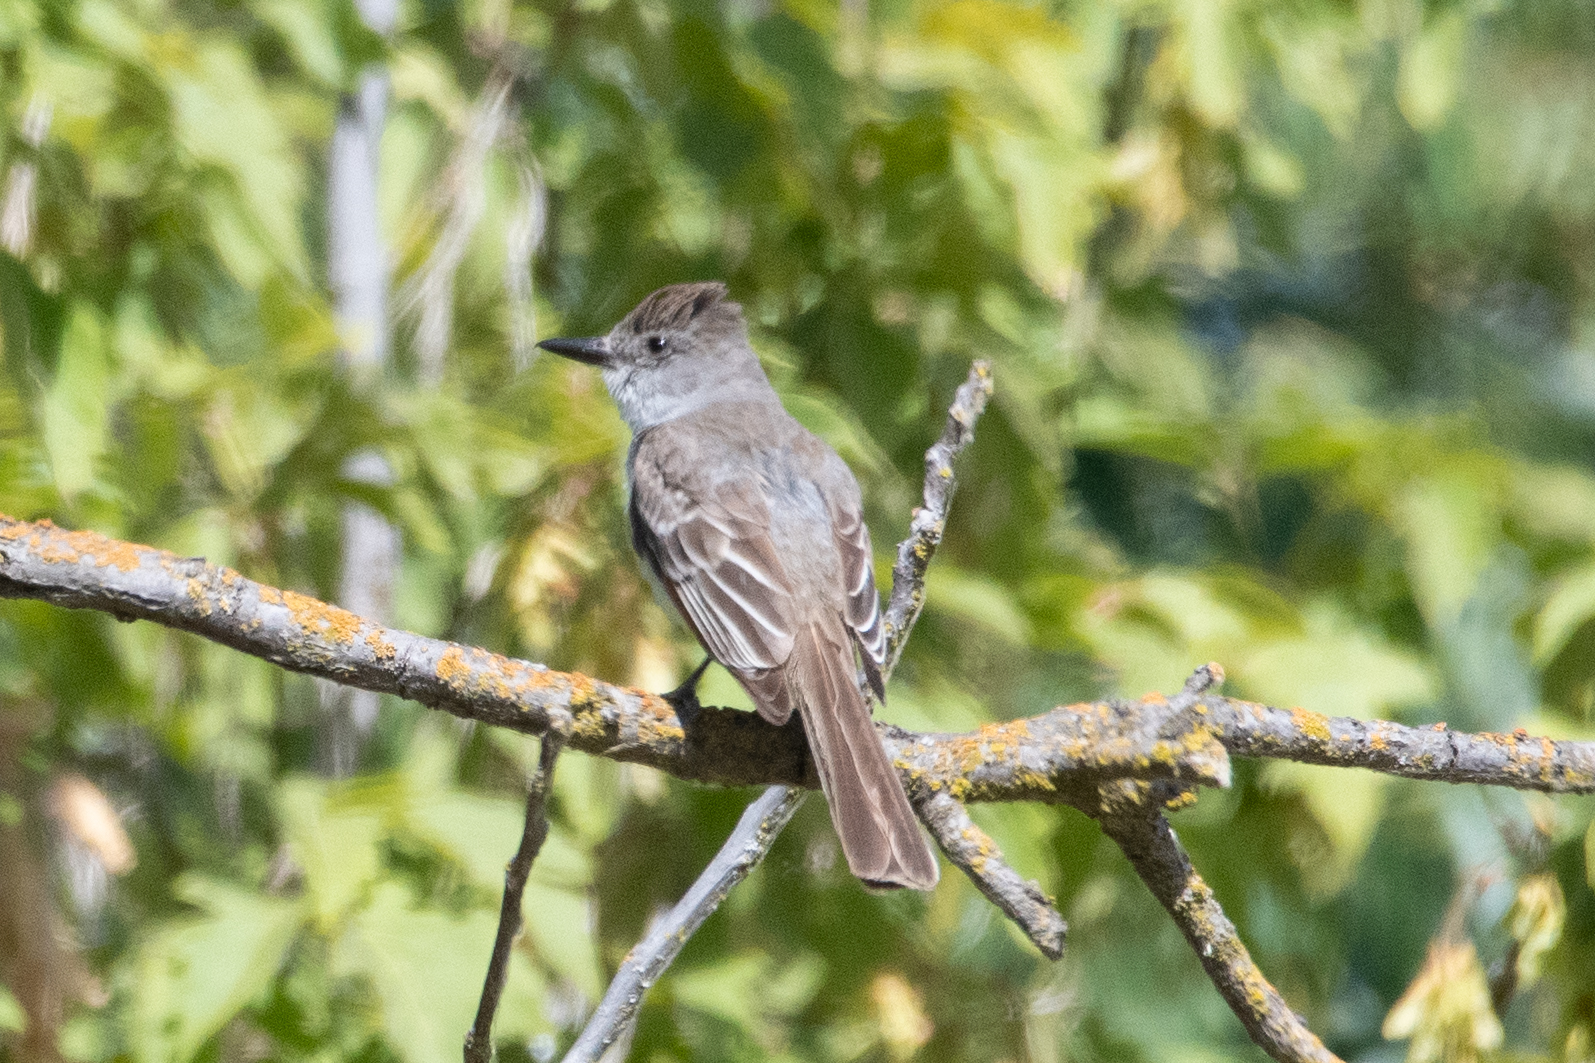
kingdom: Animalia
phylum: Chordata
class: Aves
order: Passeriformes
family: Tyrannidae
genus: Myiarchus
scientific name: Myiarchus cinerascens
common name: Ash-throated flycatcher
